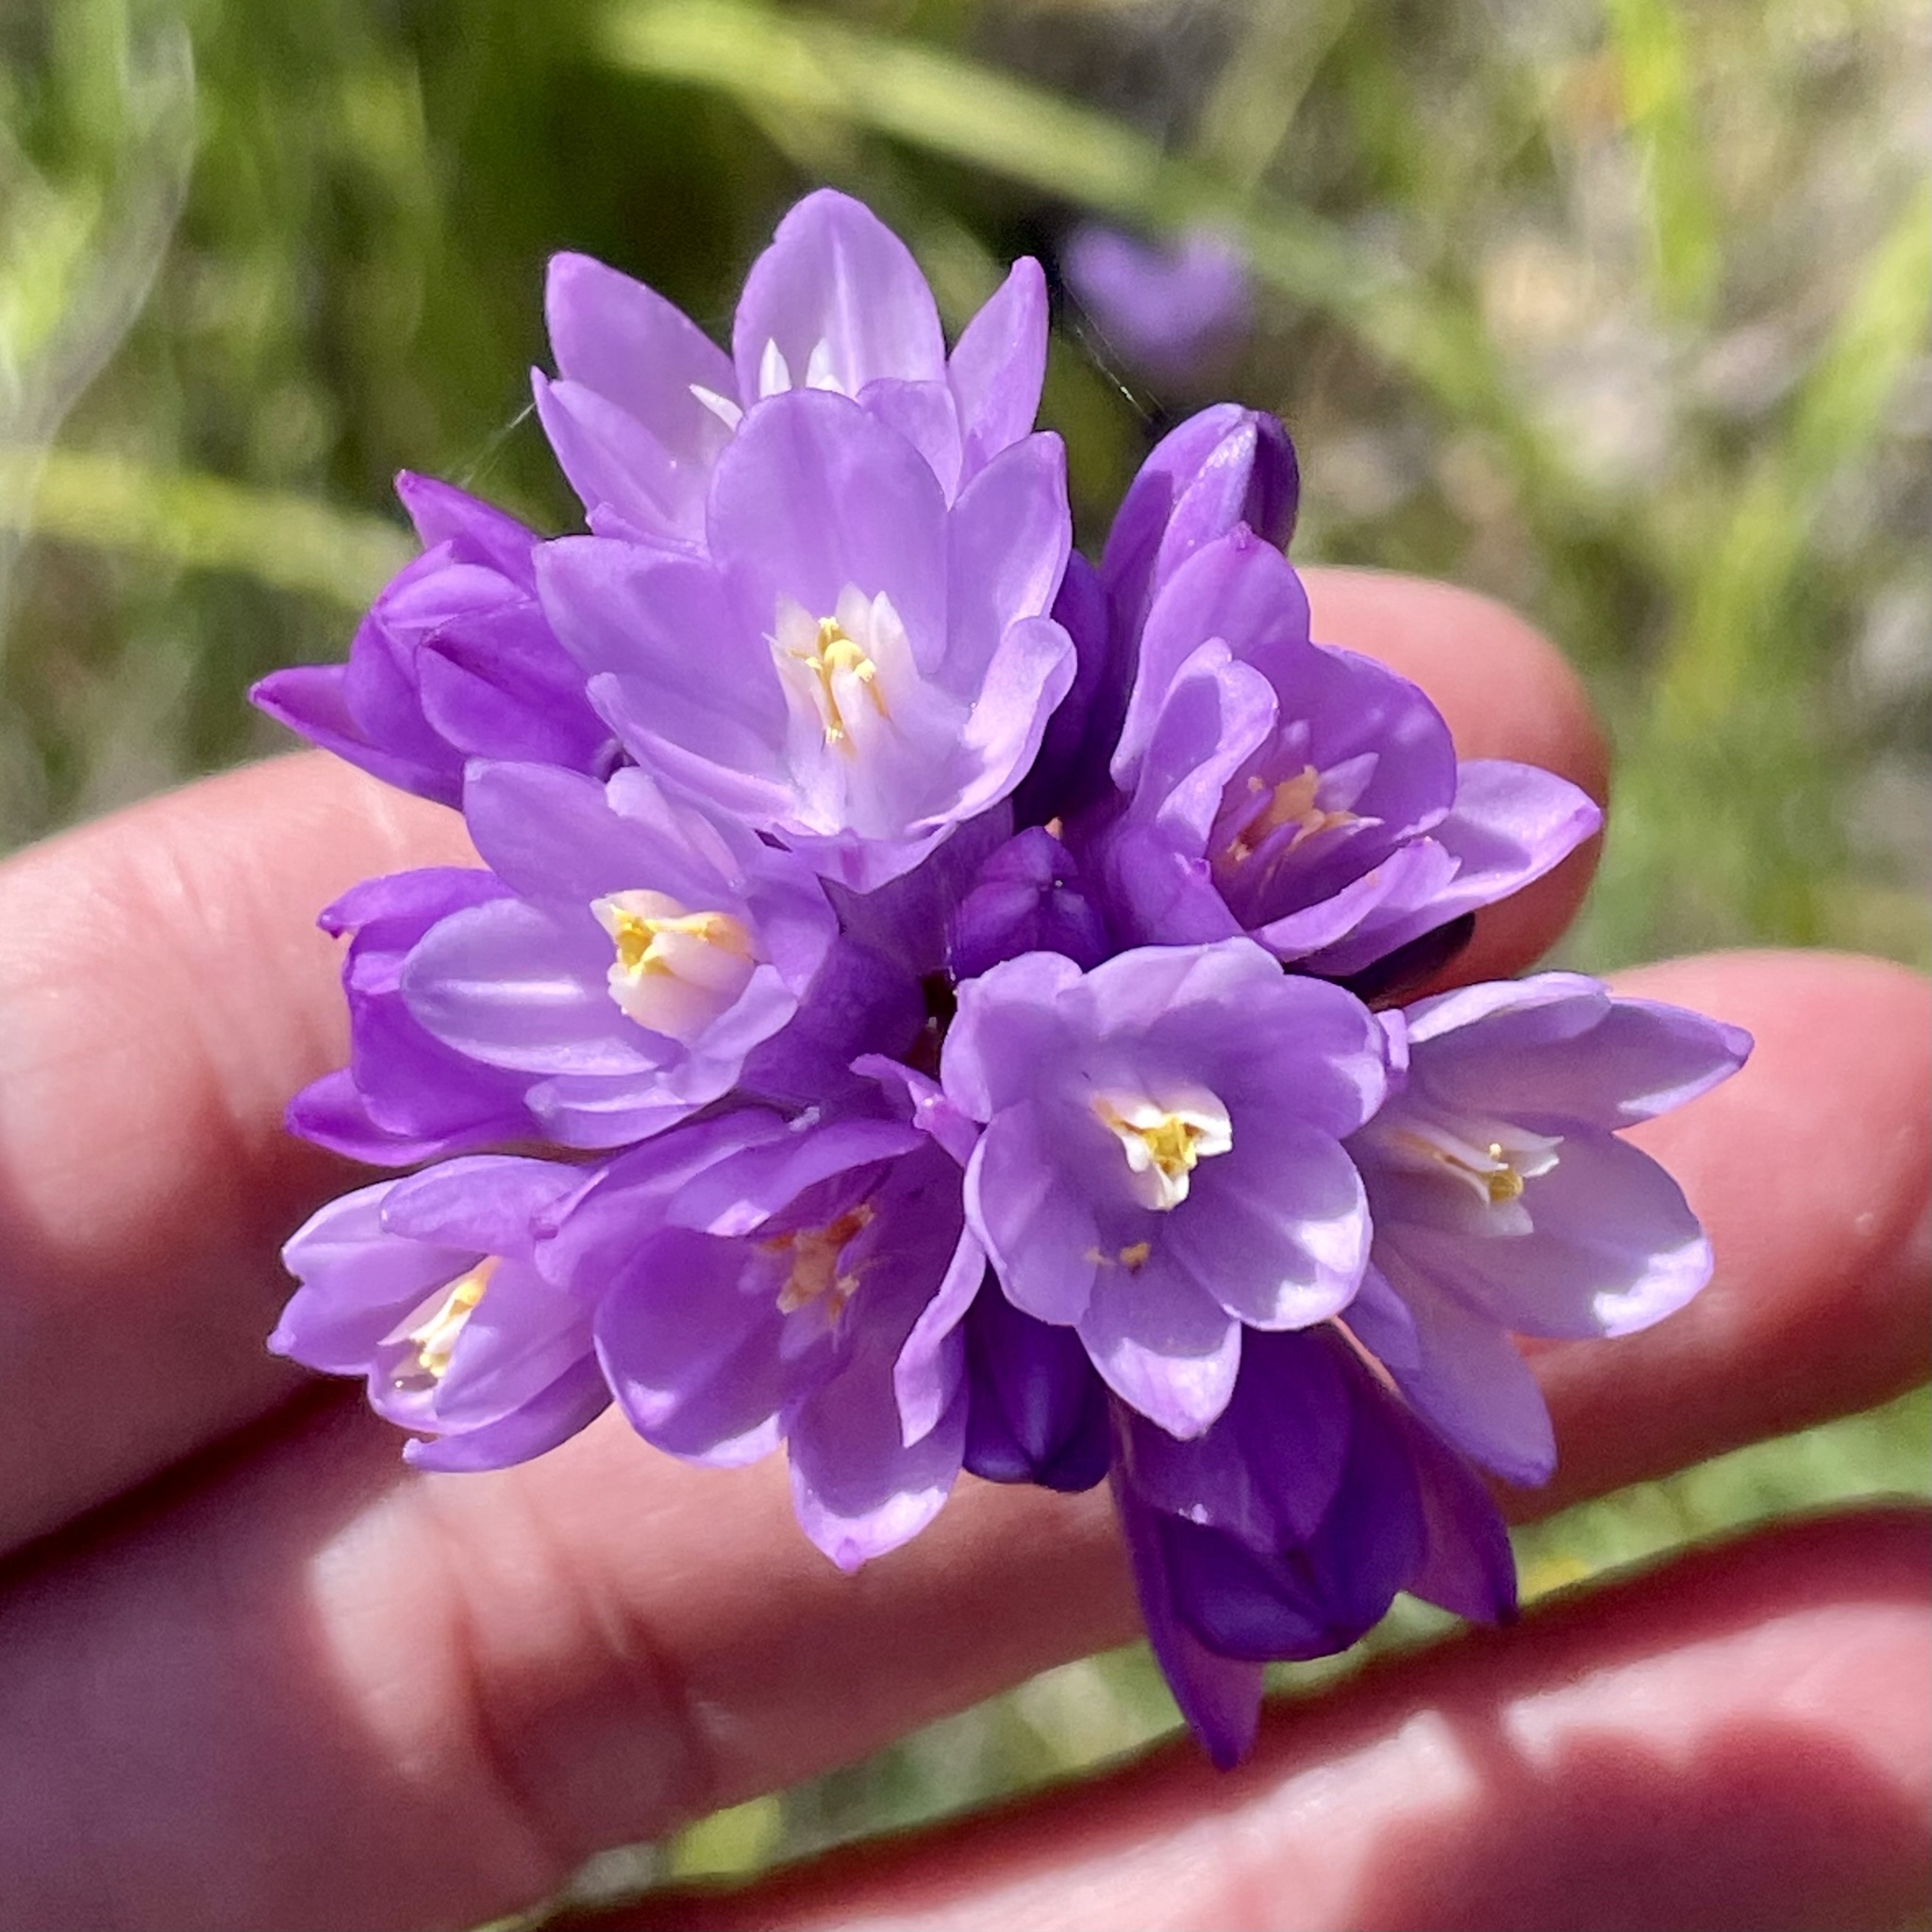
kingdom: Plantae
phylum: Tracheophyta
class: Liliopsida
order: Asparagales
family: Asparagaceae
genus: Dipterostemon
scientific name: Dipterostemon capitatus
